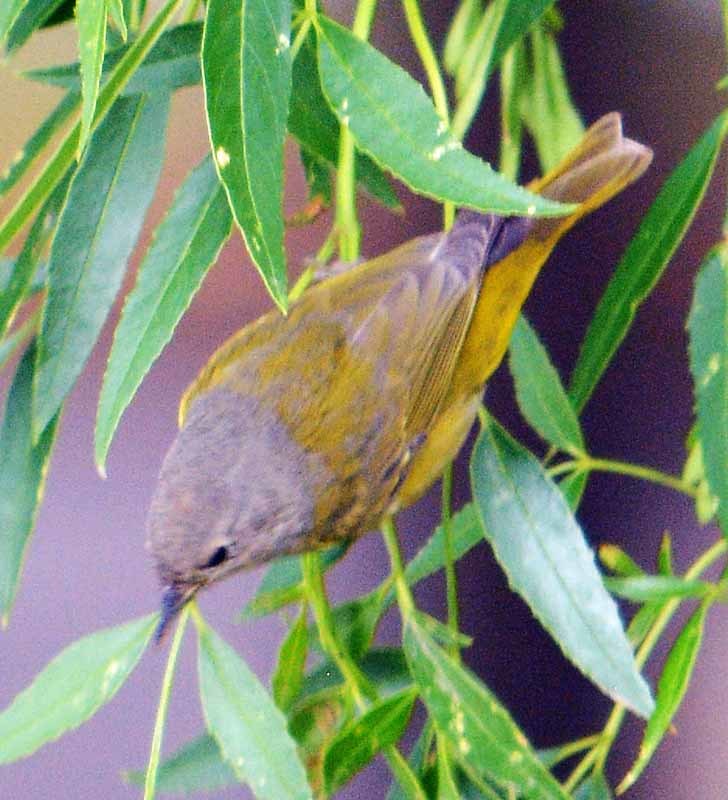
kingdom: Animalia
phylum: Chordata
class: Aves
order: Passeriformes
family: Parulidae
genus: Leiothlypis
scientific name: Leiothlypis ruficapilla
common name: Nashville warbler
